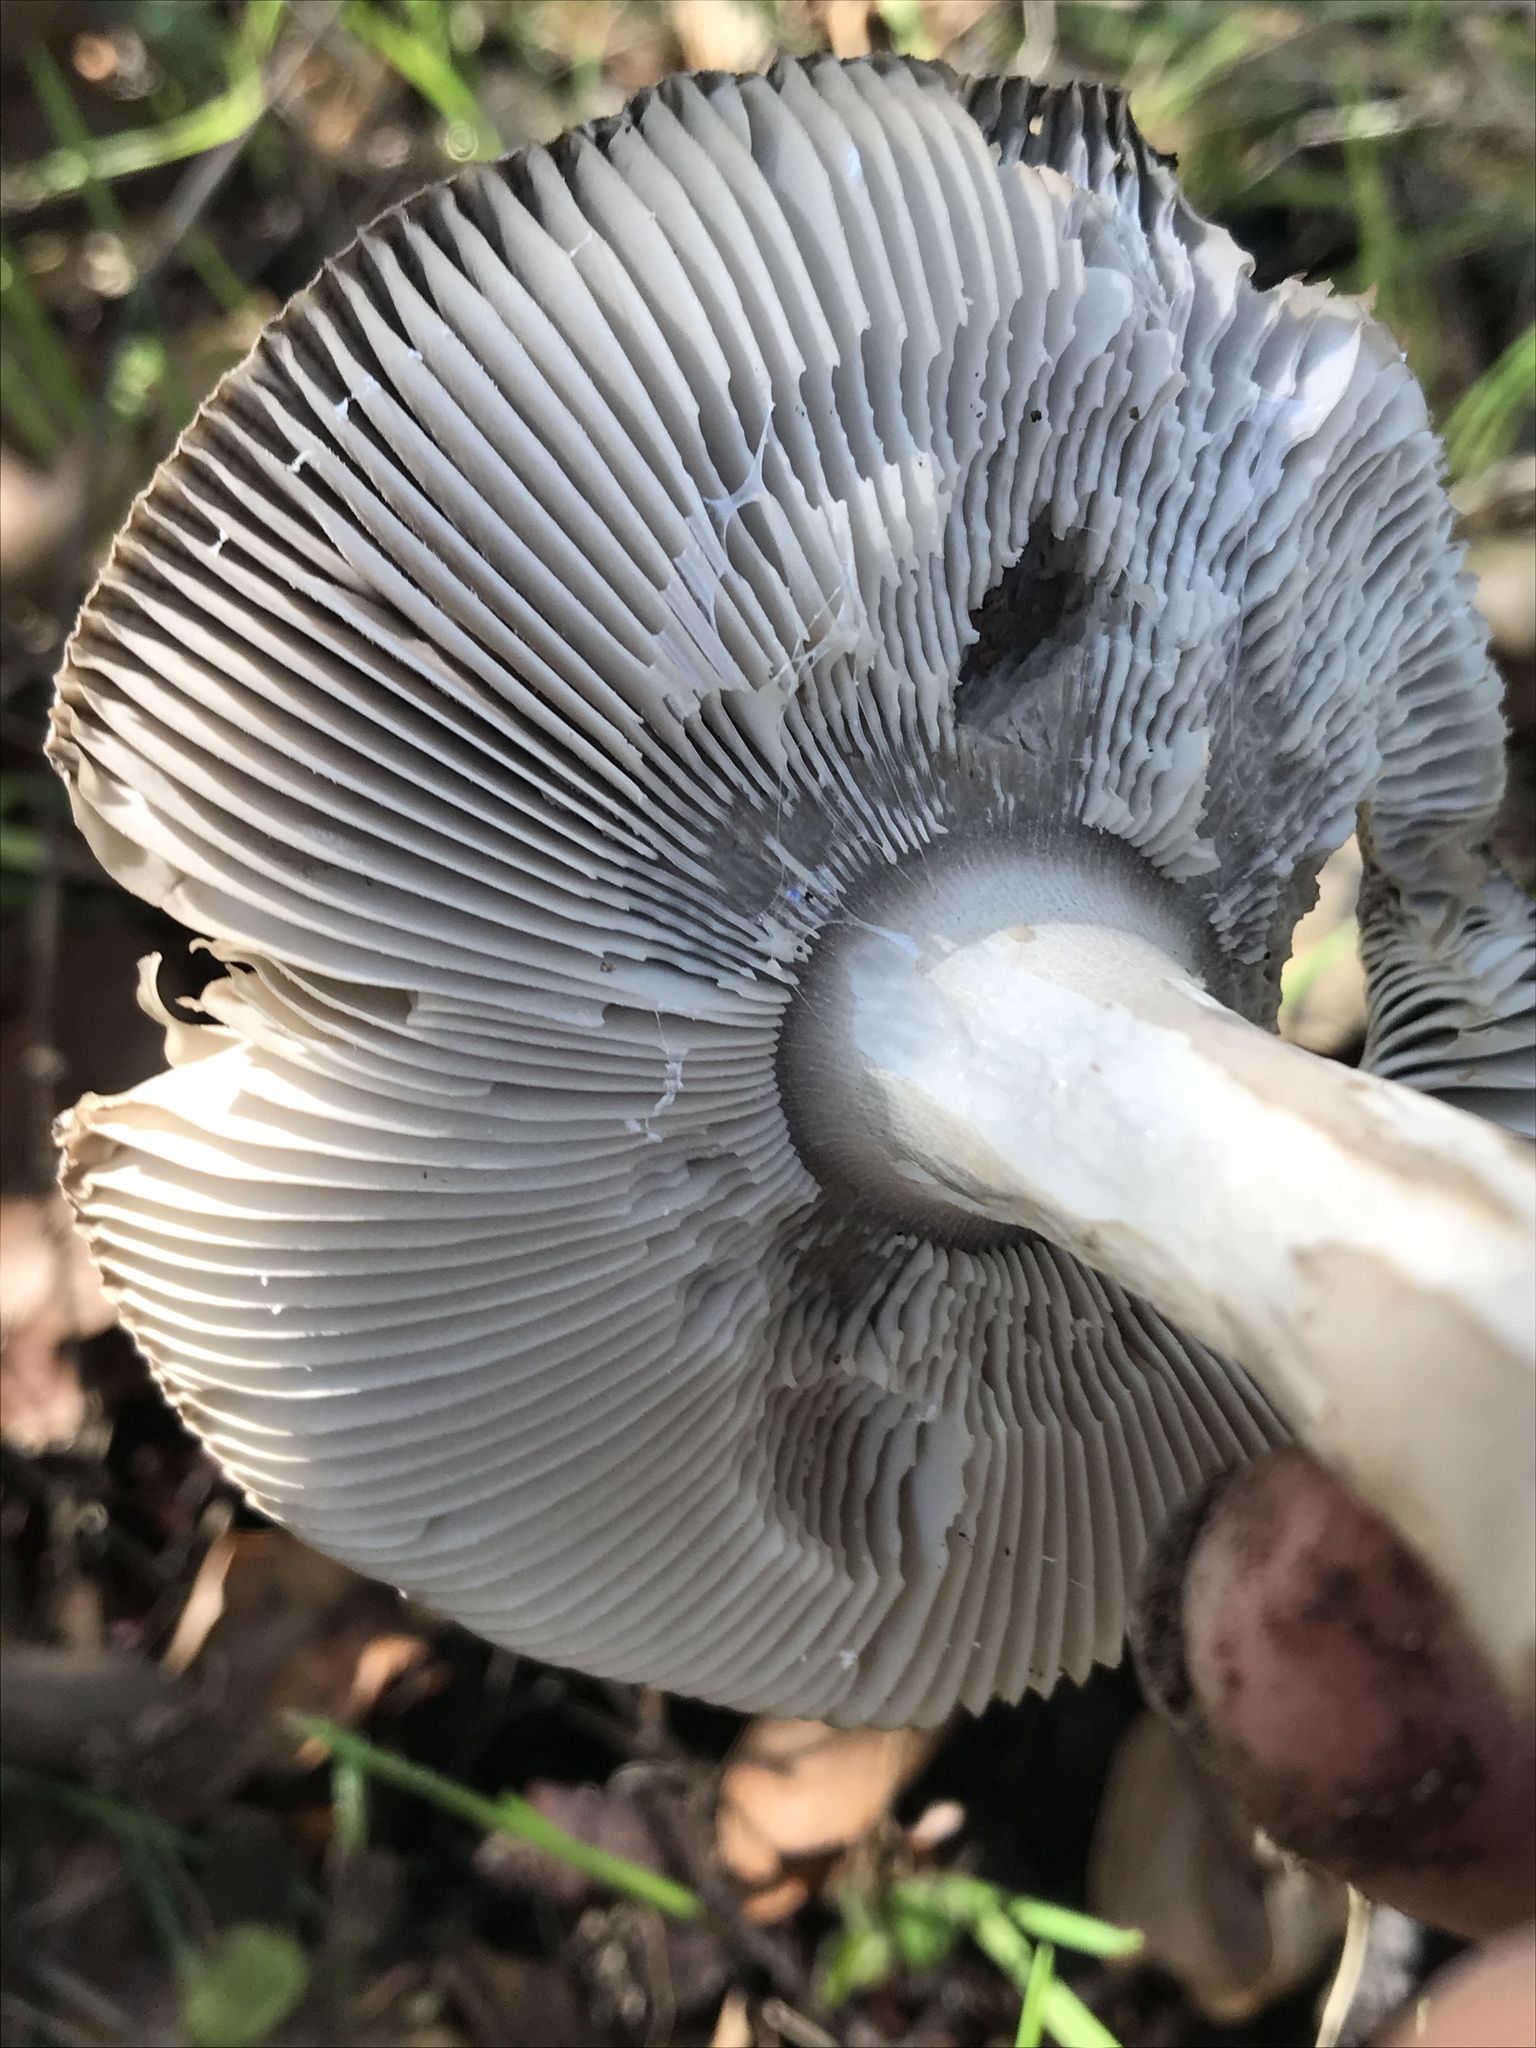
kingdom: Fungi
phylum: Basidiomycota
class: Agaricomycetes
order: Agaricales
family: Amanitaceae
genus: Amanita
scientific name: Amanita constricta
